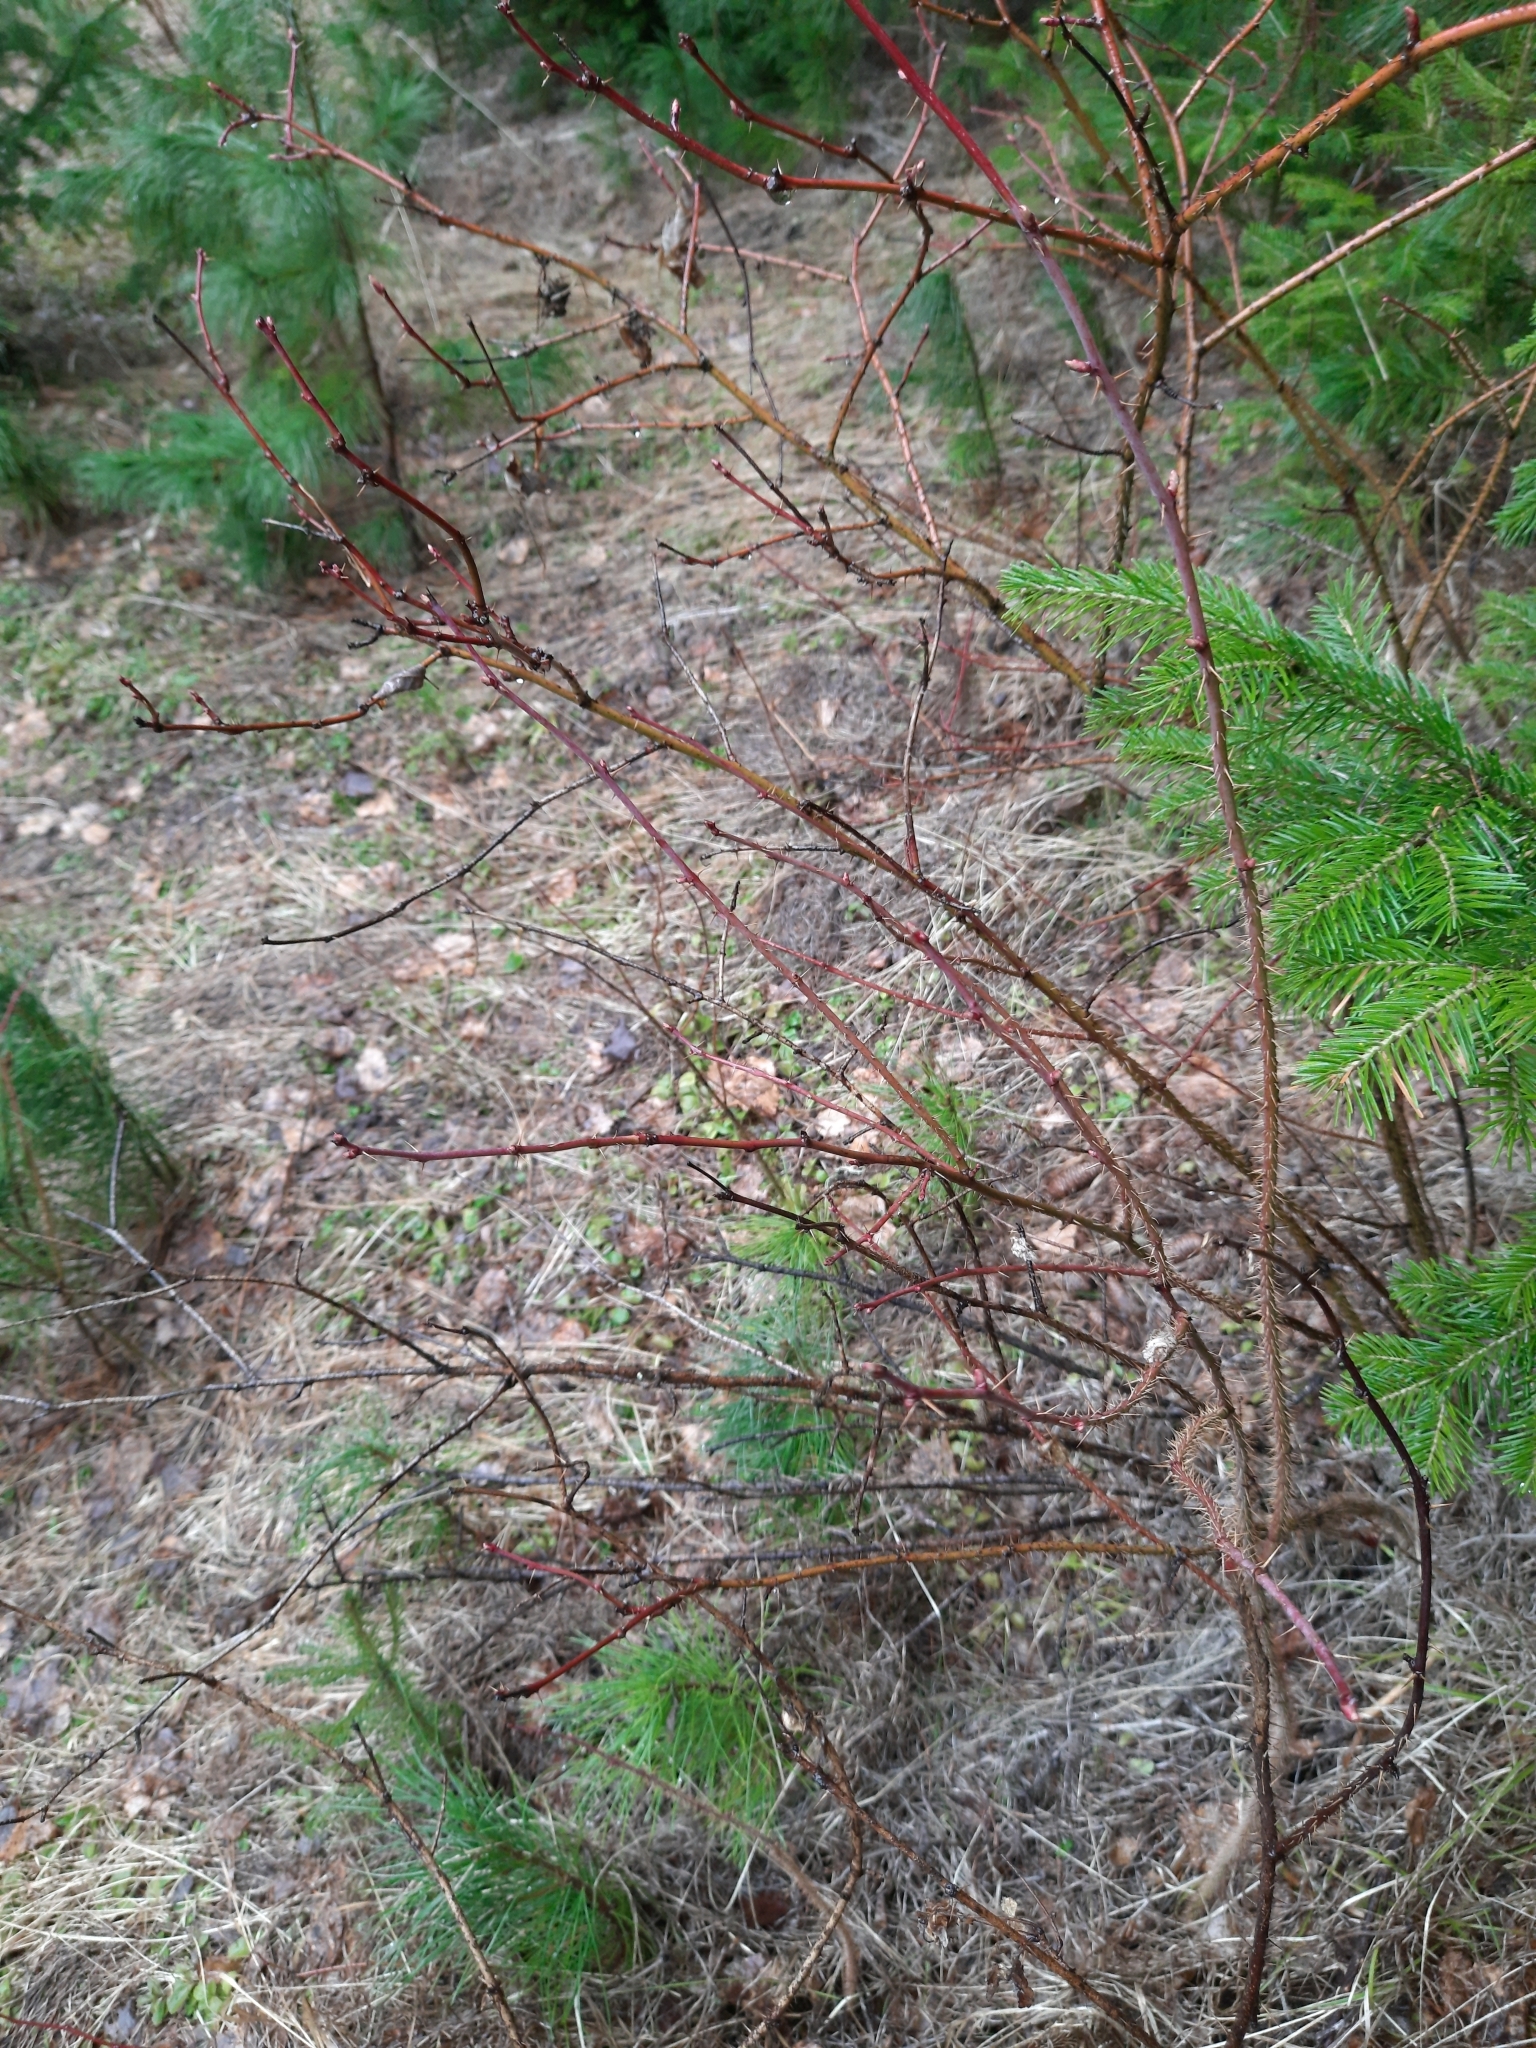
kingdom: Plantae
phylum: Tracheophyta
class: Magnoliopsida
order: Rosales
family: Rosaceae
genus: Rosa
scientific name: Rosa
